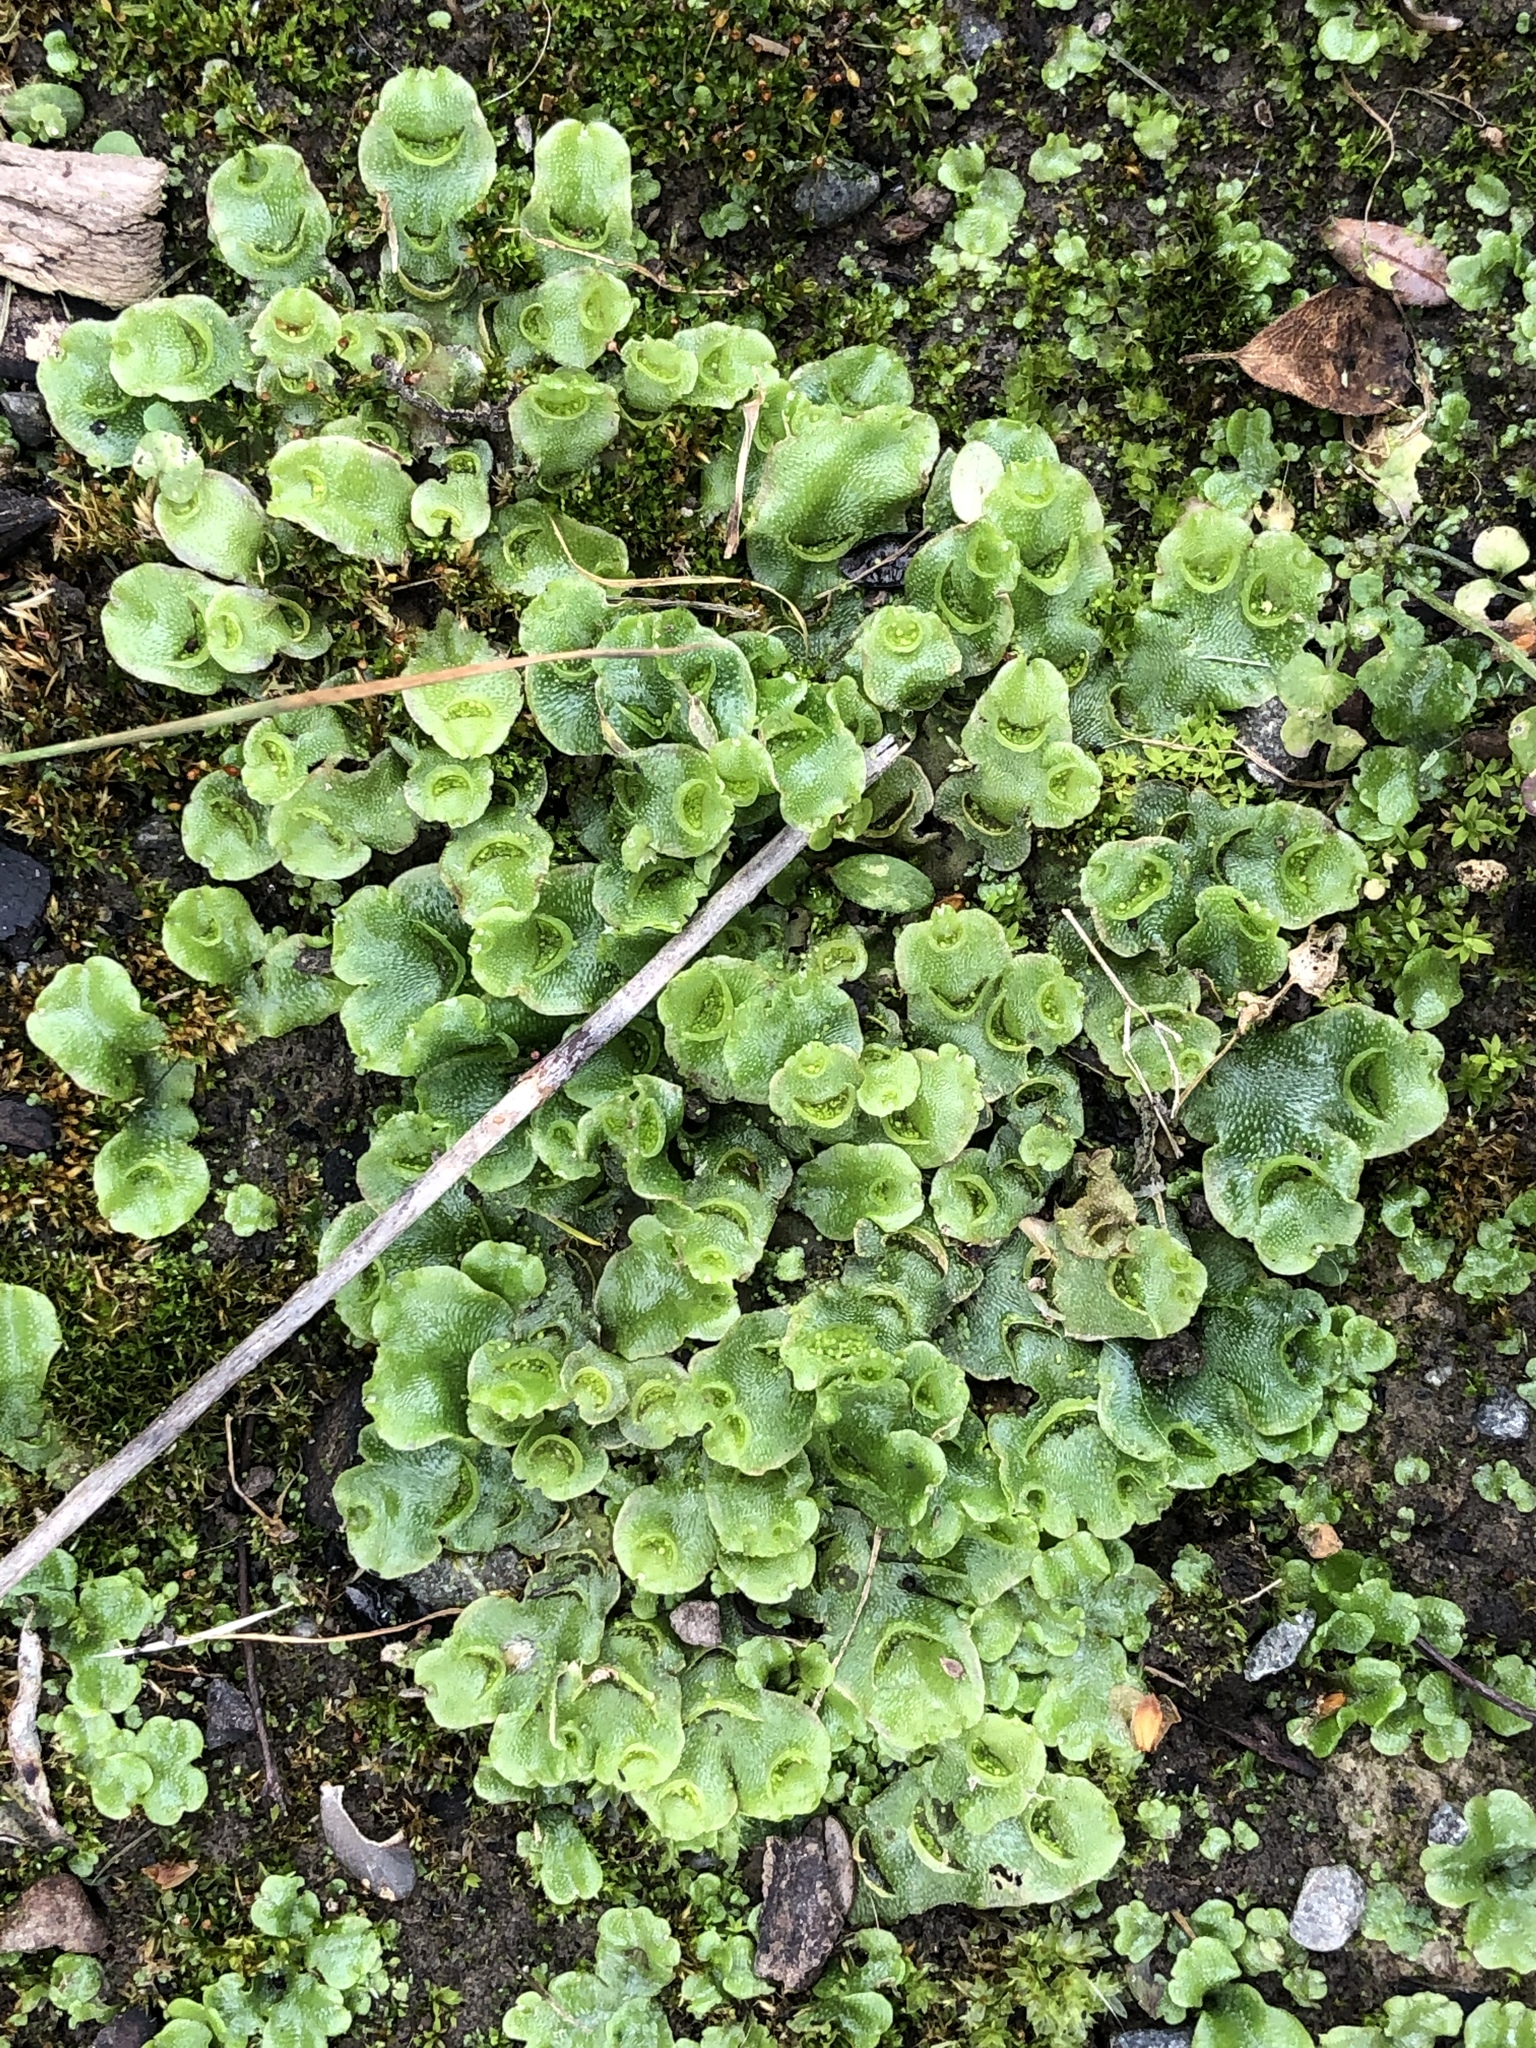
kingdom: Plantae
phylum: Marchantiophyta
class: Marchantiopsida
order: Lunulariales
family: Lunulariaceae
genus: Lunularia
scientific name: Lunularia cruciata
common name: Crescent-cup liverwort
